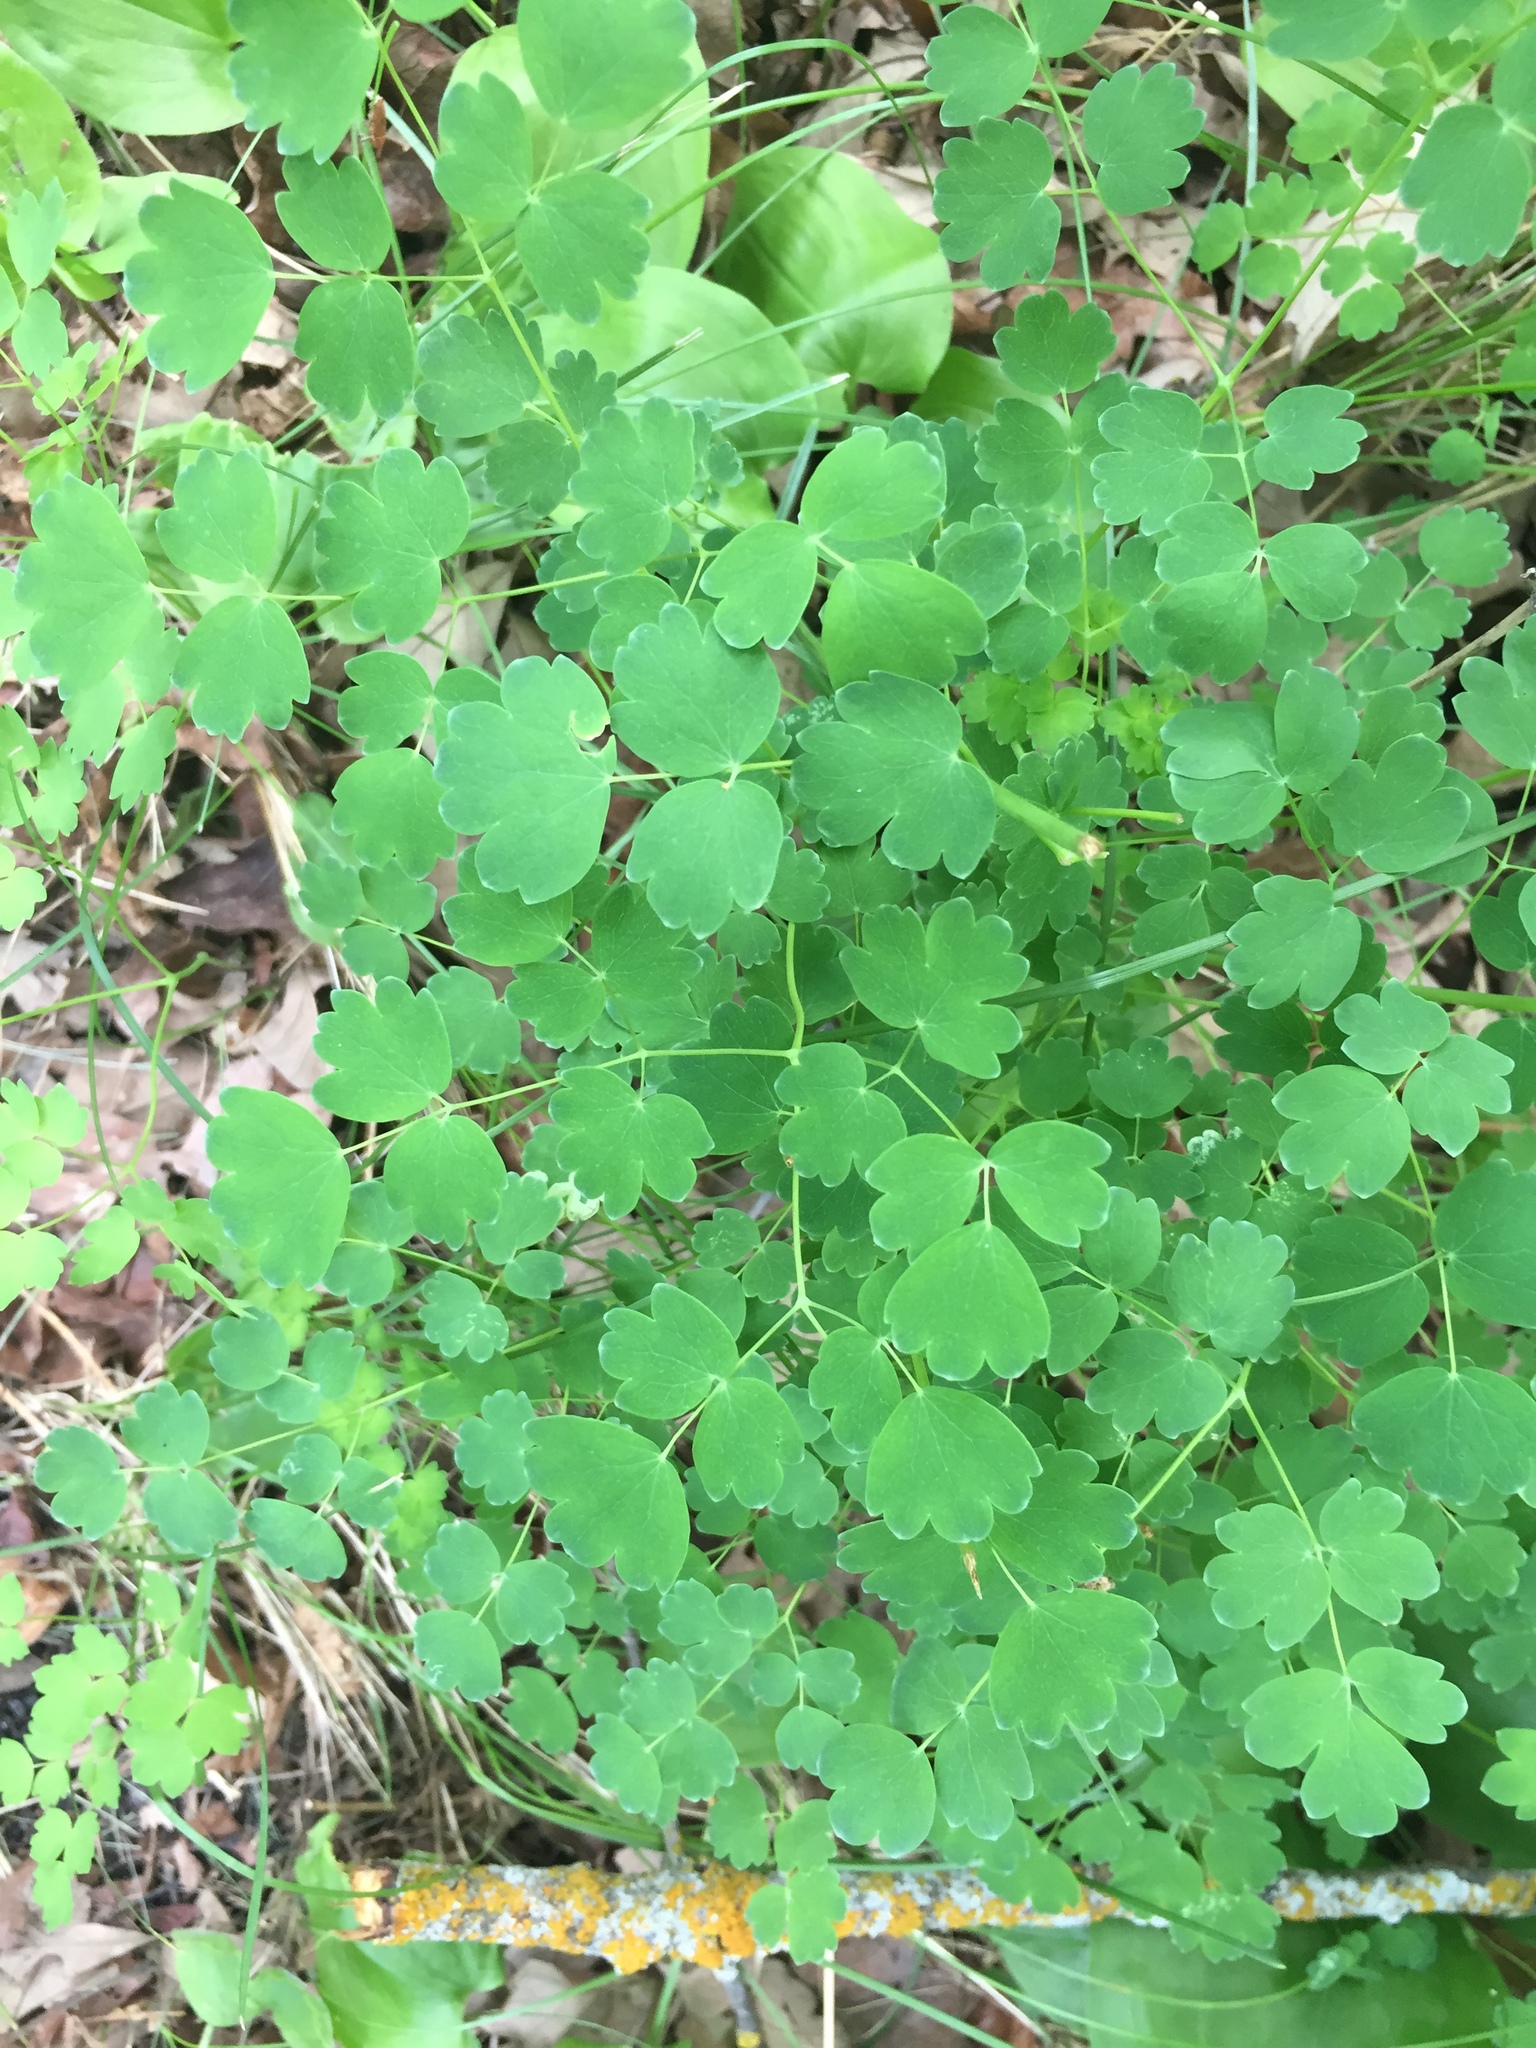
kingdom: Plantae
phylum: Tracheophyta
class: Magnoliopsida
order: Ranunculales
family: Ranunculaceae
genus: Thalictrum
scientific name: Thalictrum venulosum
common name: Early meadow-rue
